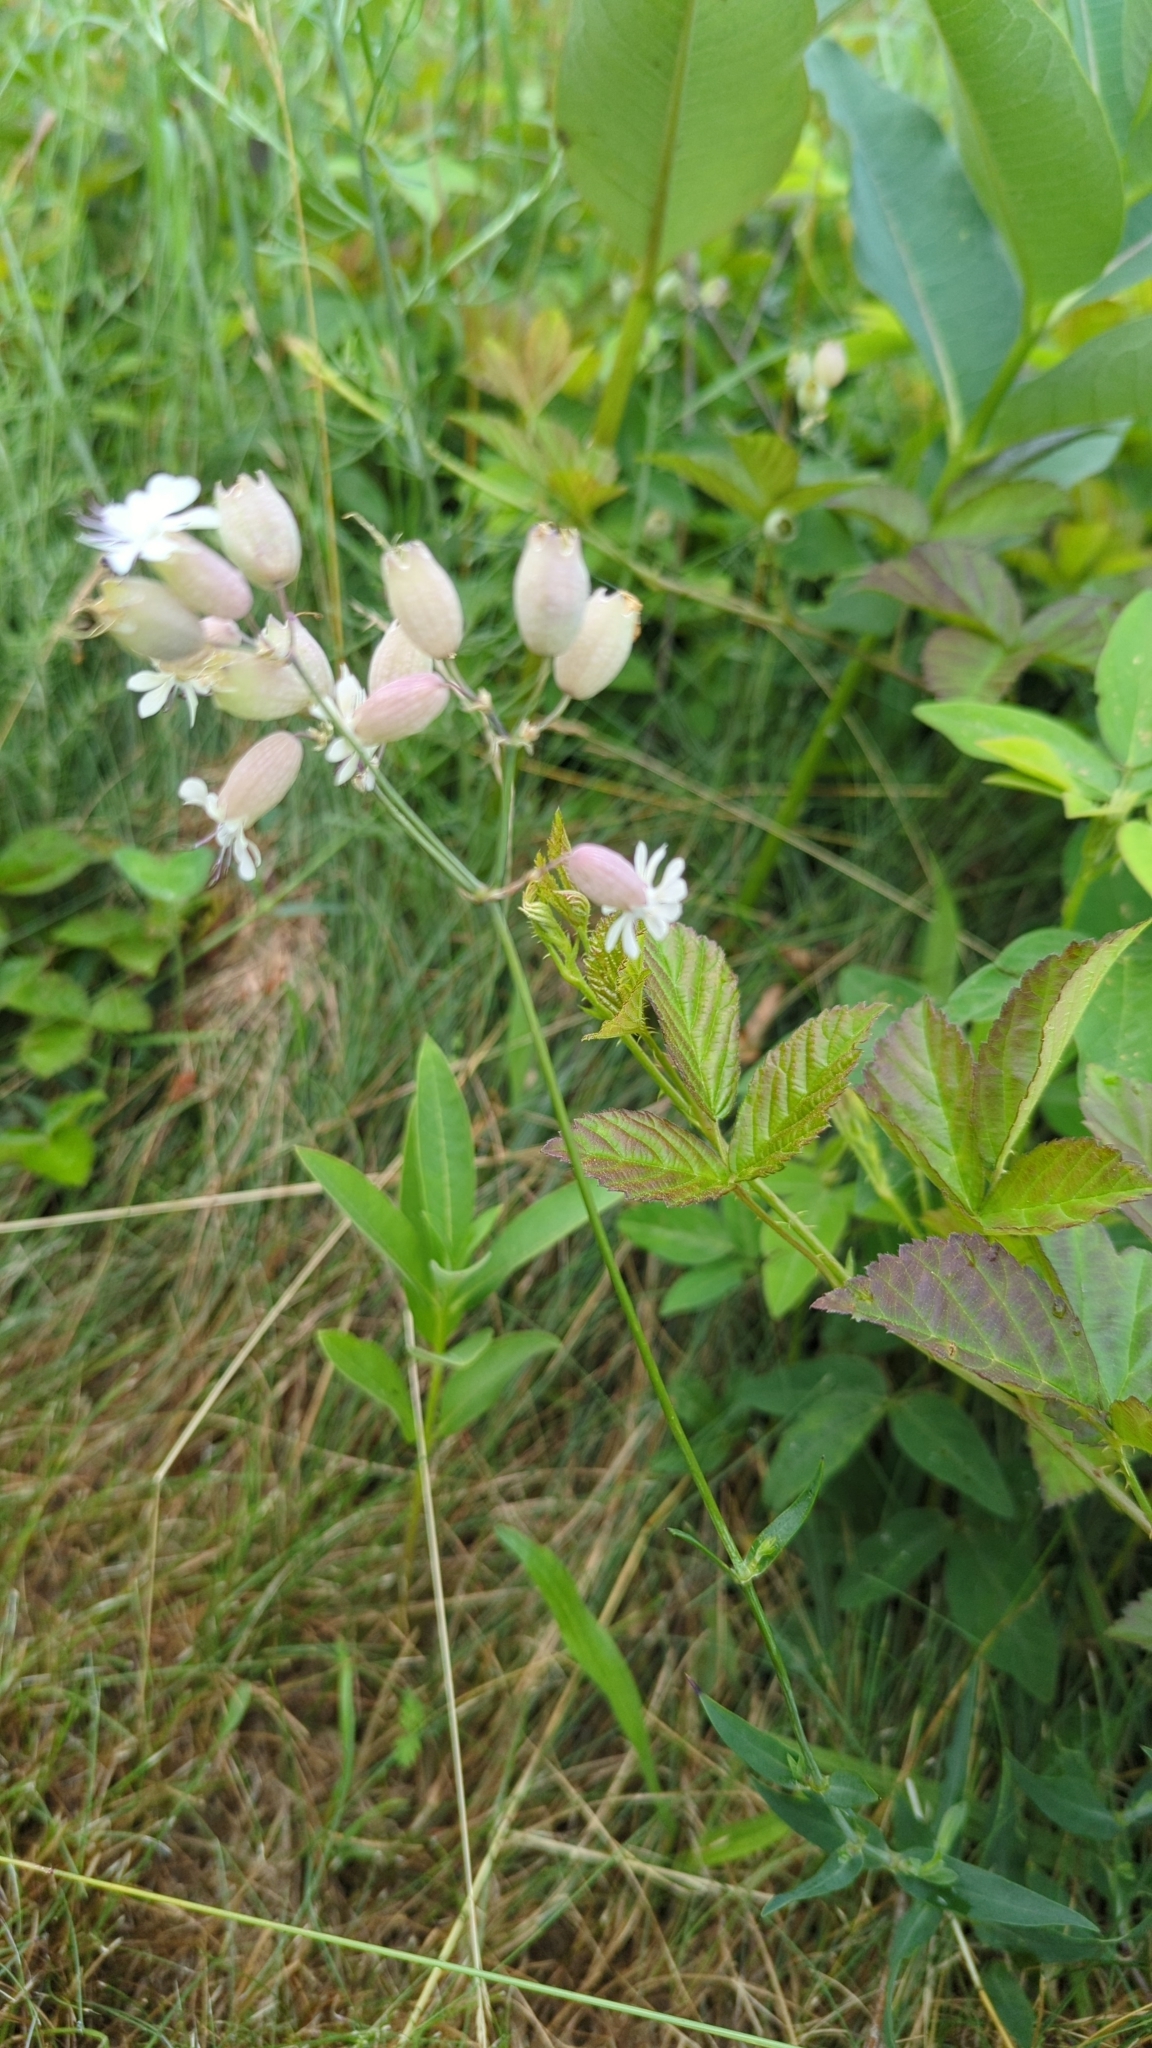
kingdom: Plantae
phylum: Tracheophyta
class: Magnoliopsida
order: Caryophyllales
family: Caryophyllaceae
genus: Silene
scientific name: Silene vulgaris
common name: Bladder campion
